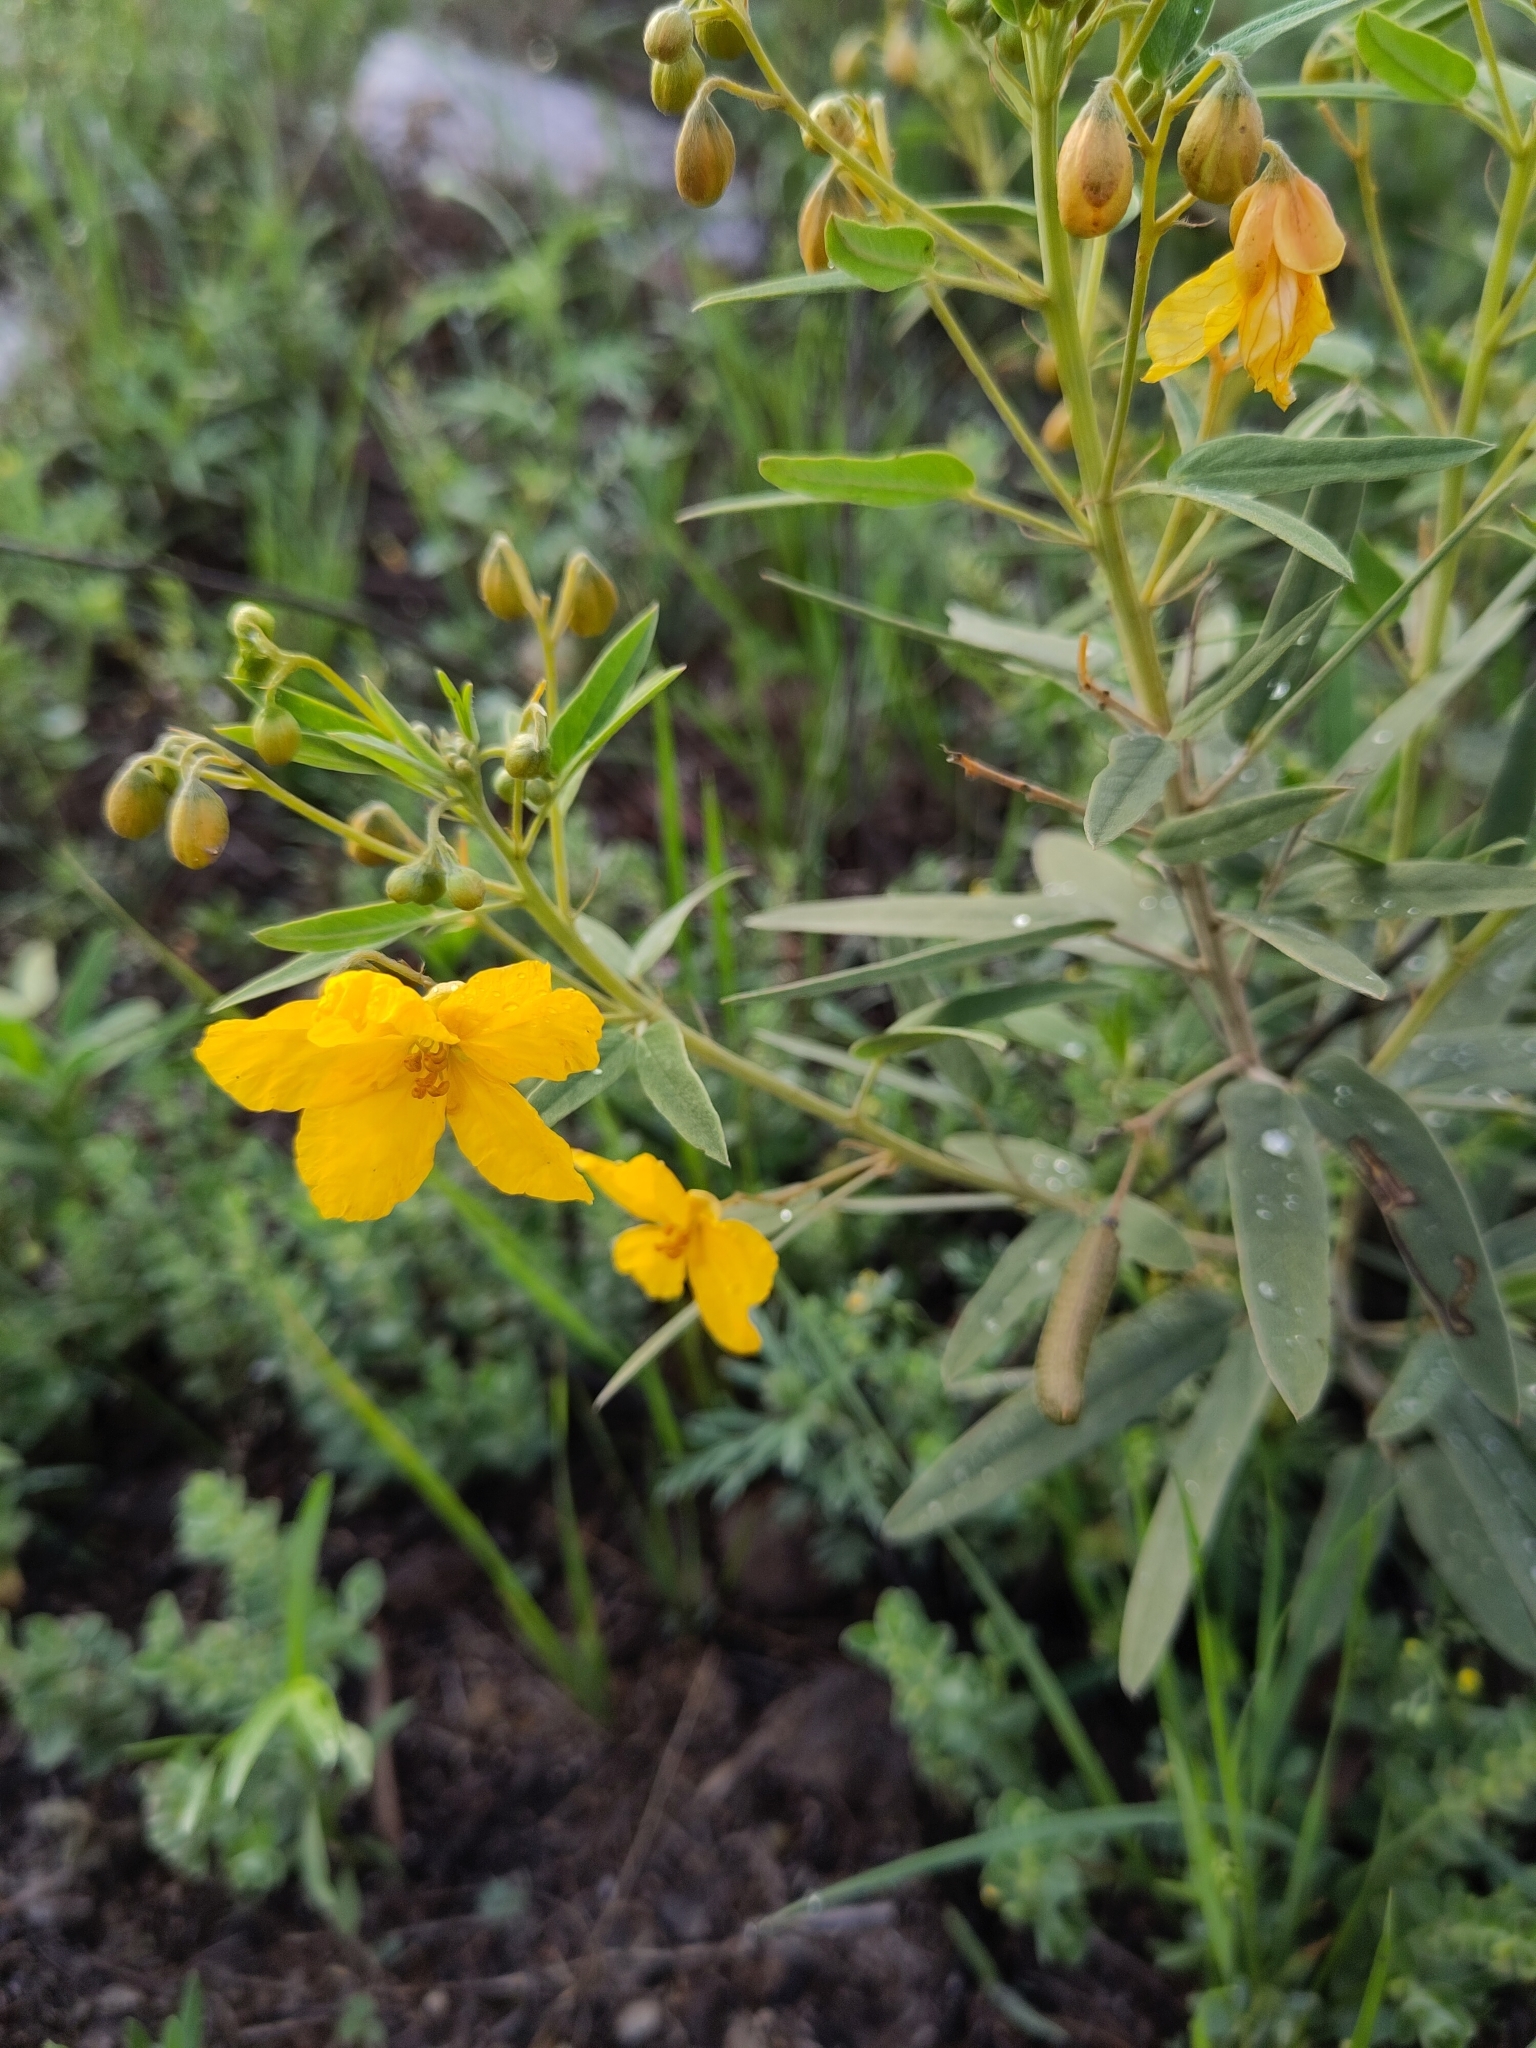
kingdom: Plantae
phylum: Tracheophyta
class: Magnoliopsida
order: Fabales
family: Fabaceae
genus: Senna
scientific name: Senna roemeriana
